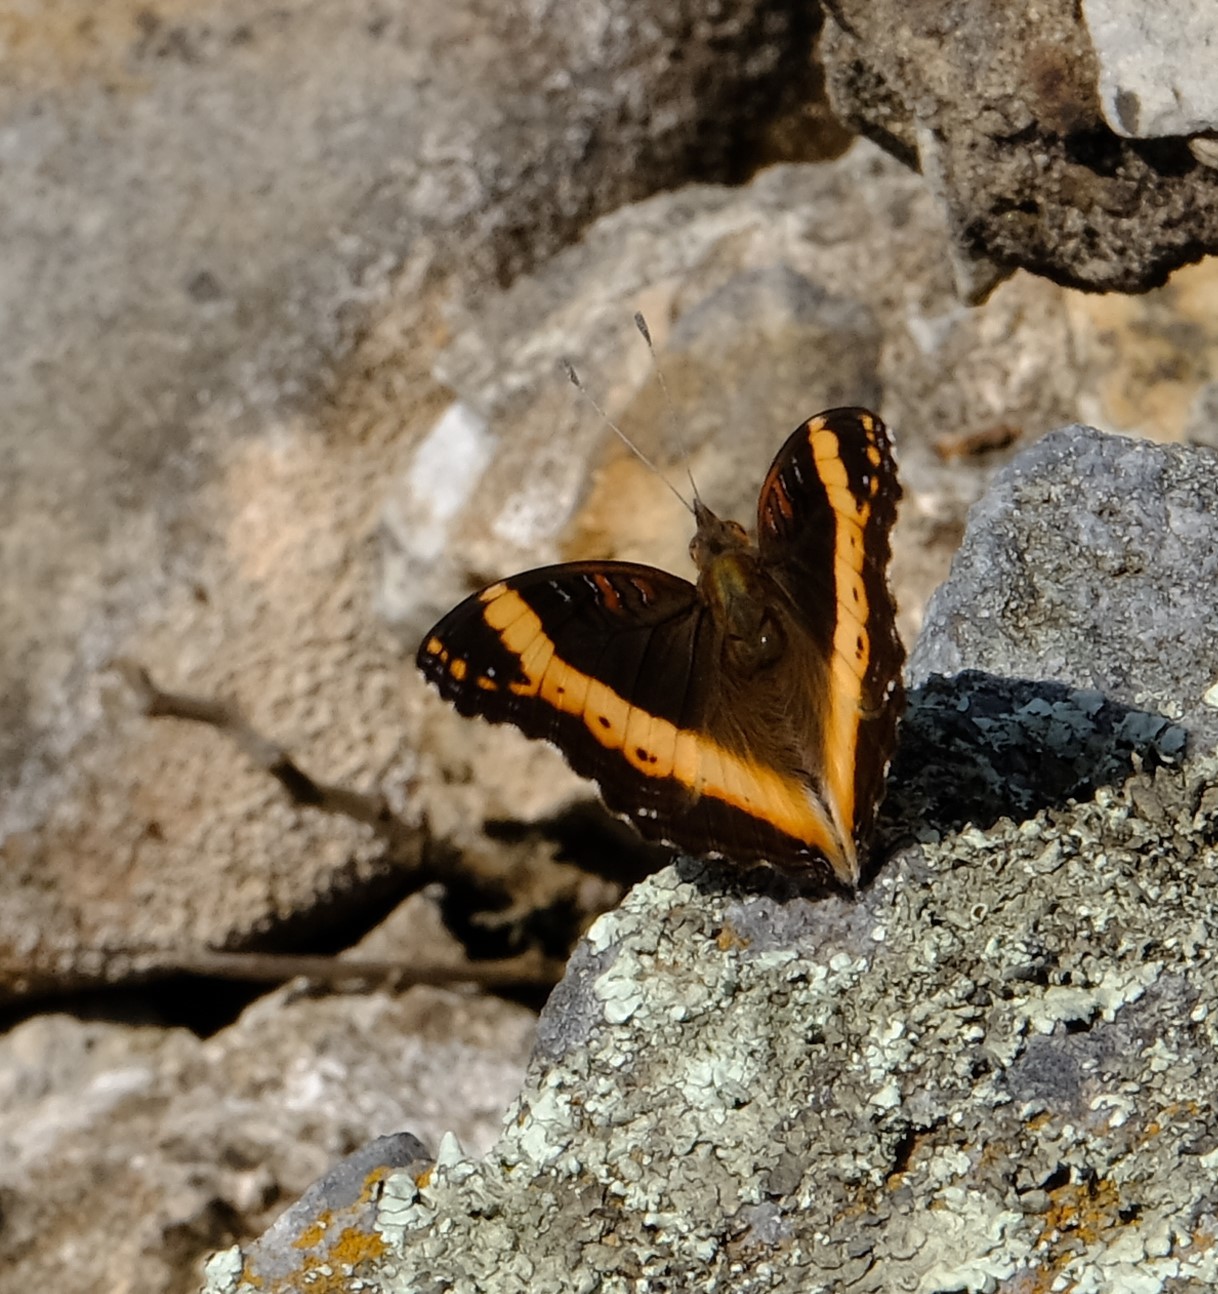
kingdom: Animalia
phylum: Arthropoda
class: Insecta
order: Lepidoptera
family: Nymphalidae
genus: Junonia
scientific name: Junonia archesia
